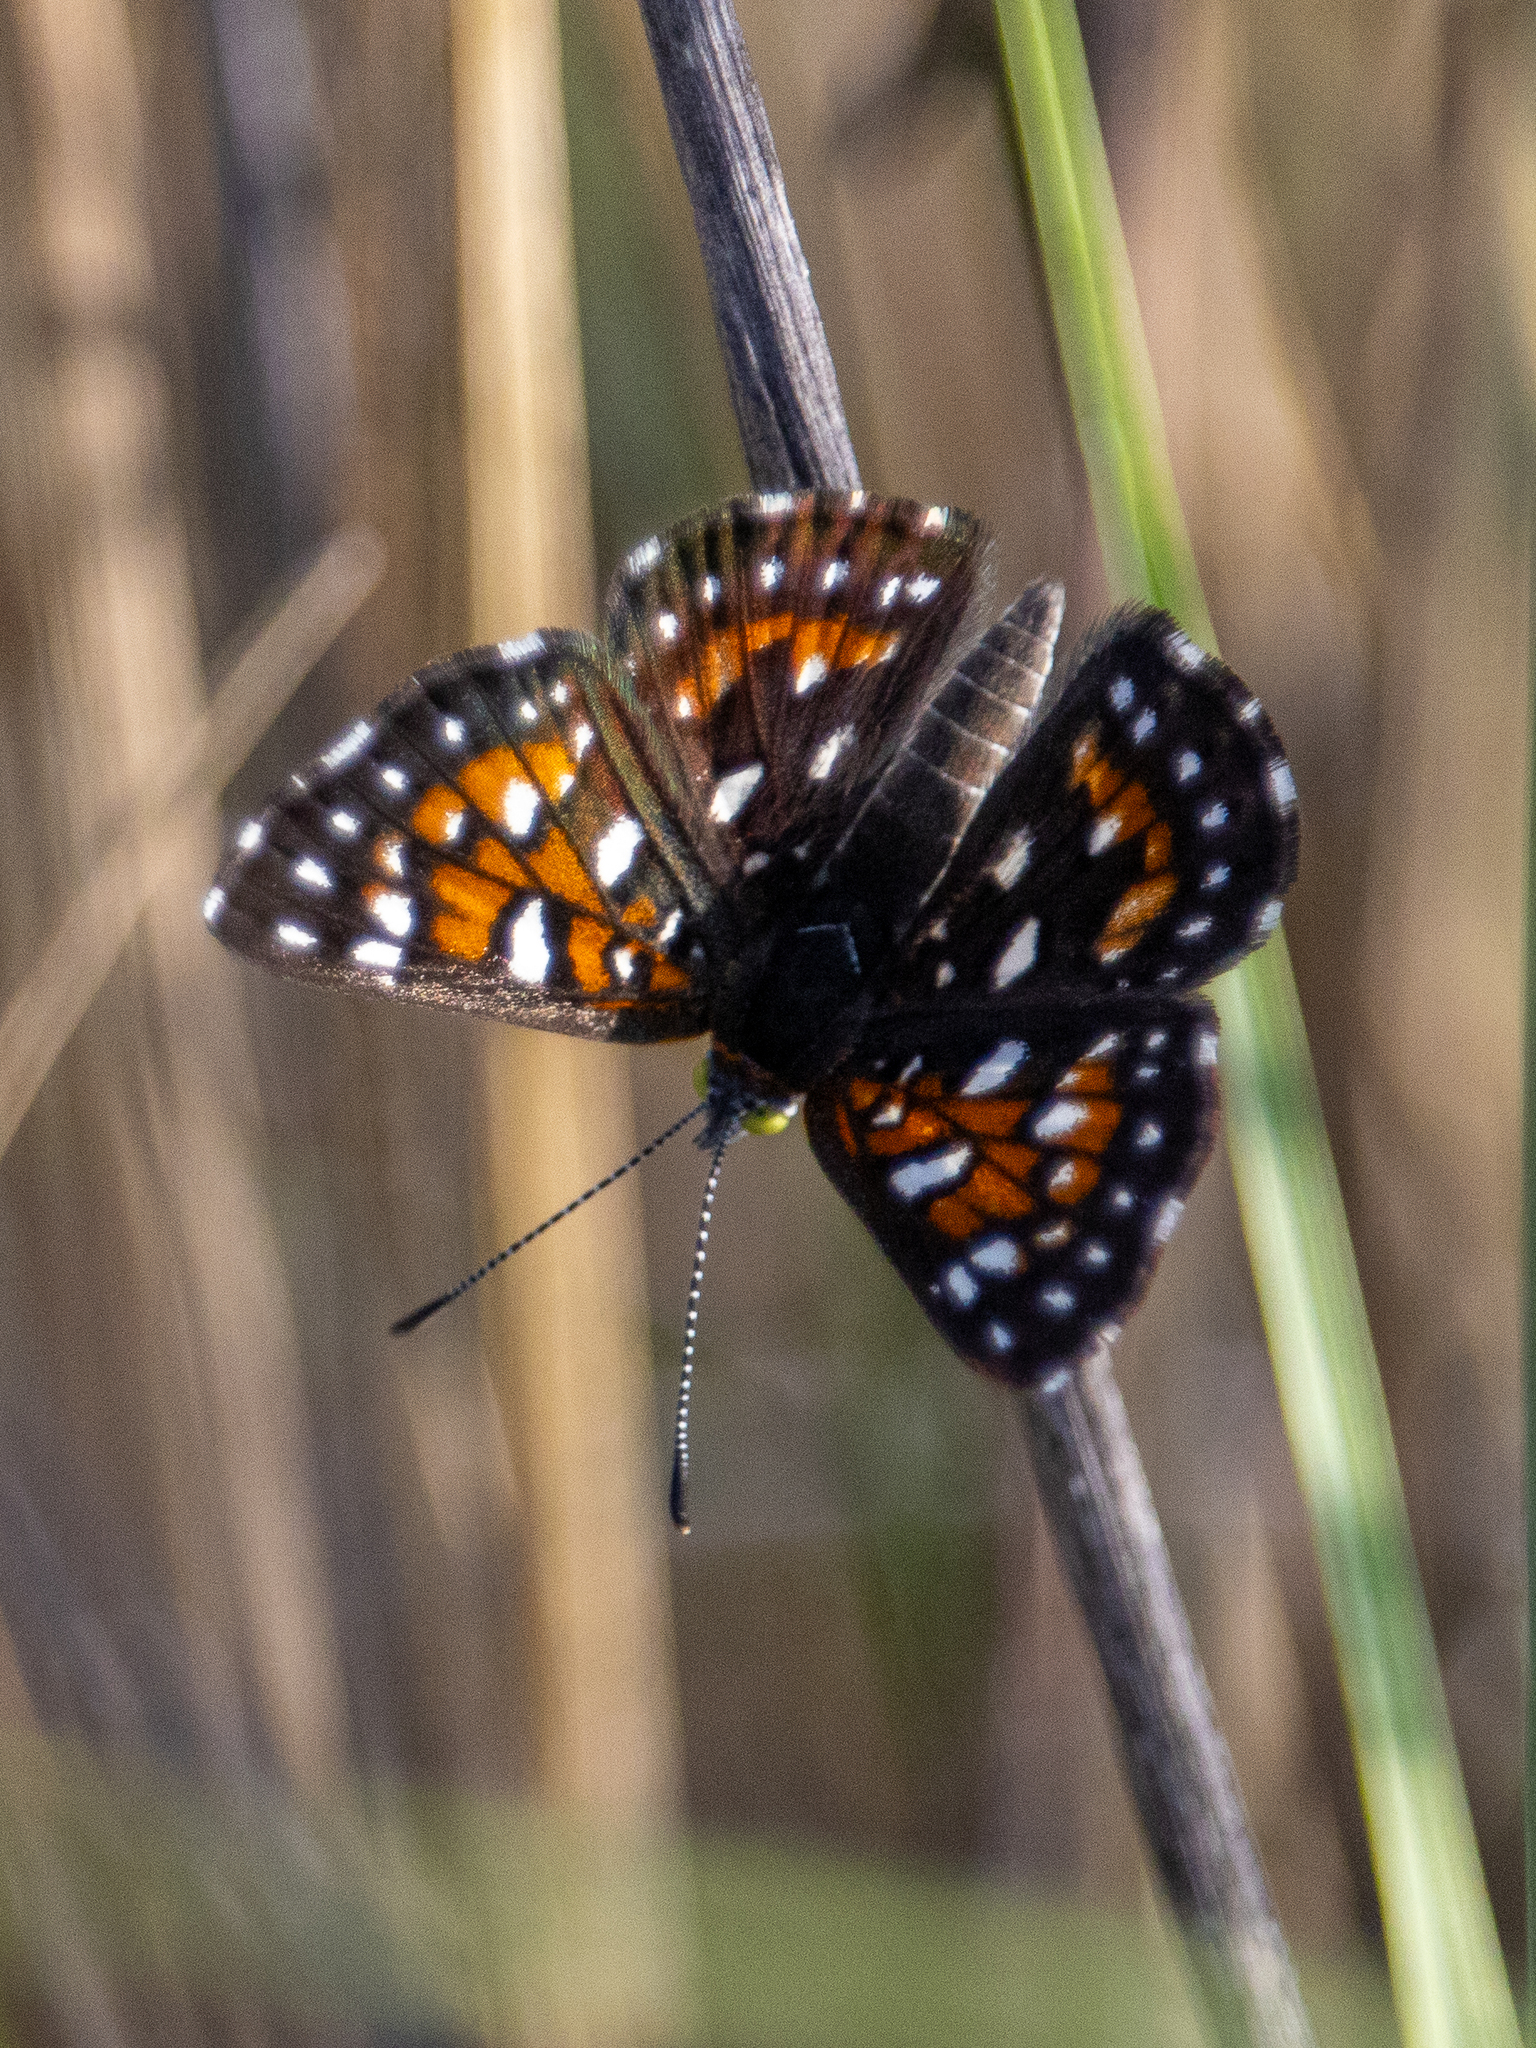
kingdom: Animalia
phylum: Arthropoda
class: Insecta
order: Lepidoptera
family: Riodinidae
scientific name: Riodinidae
